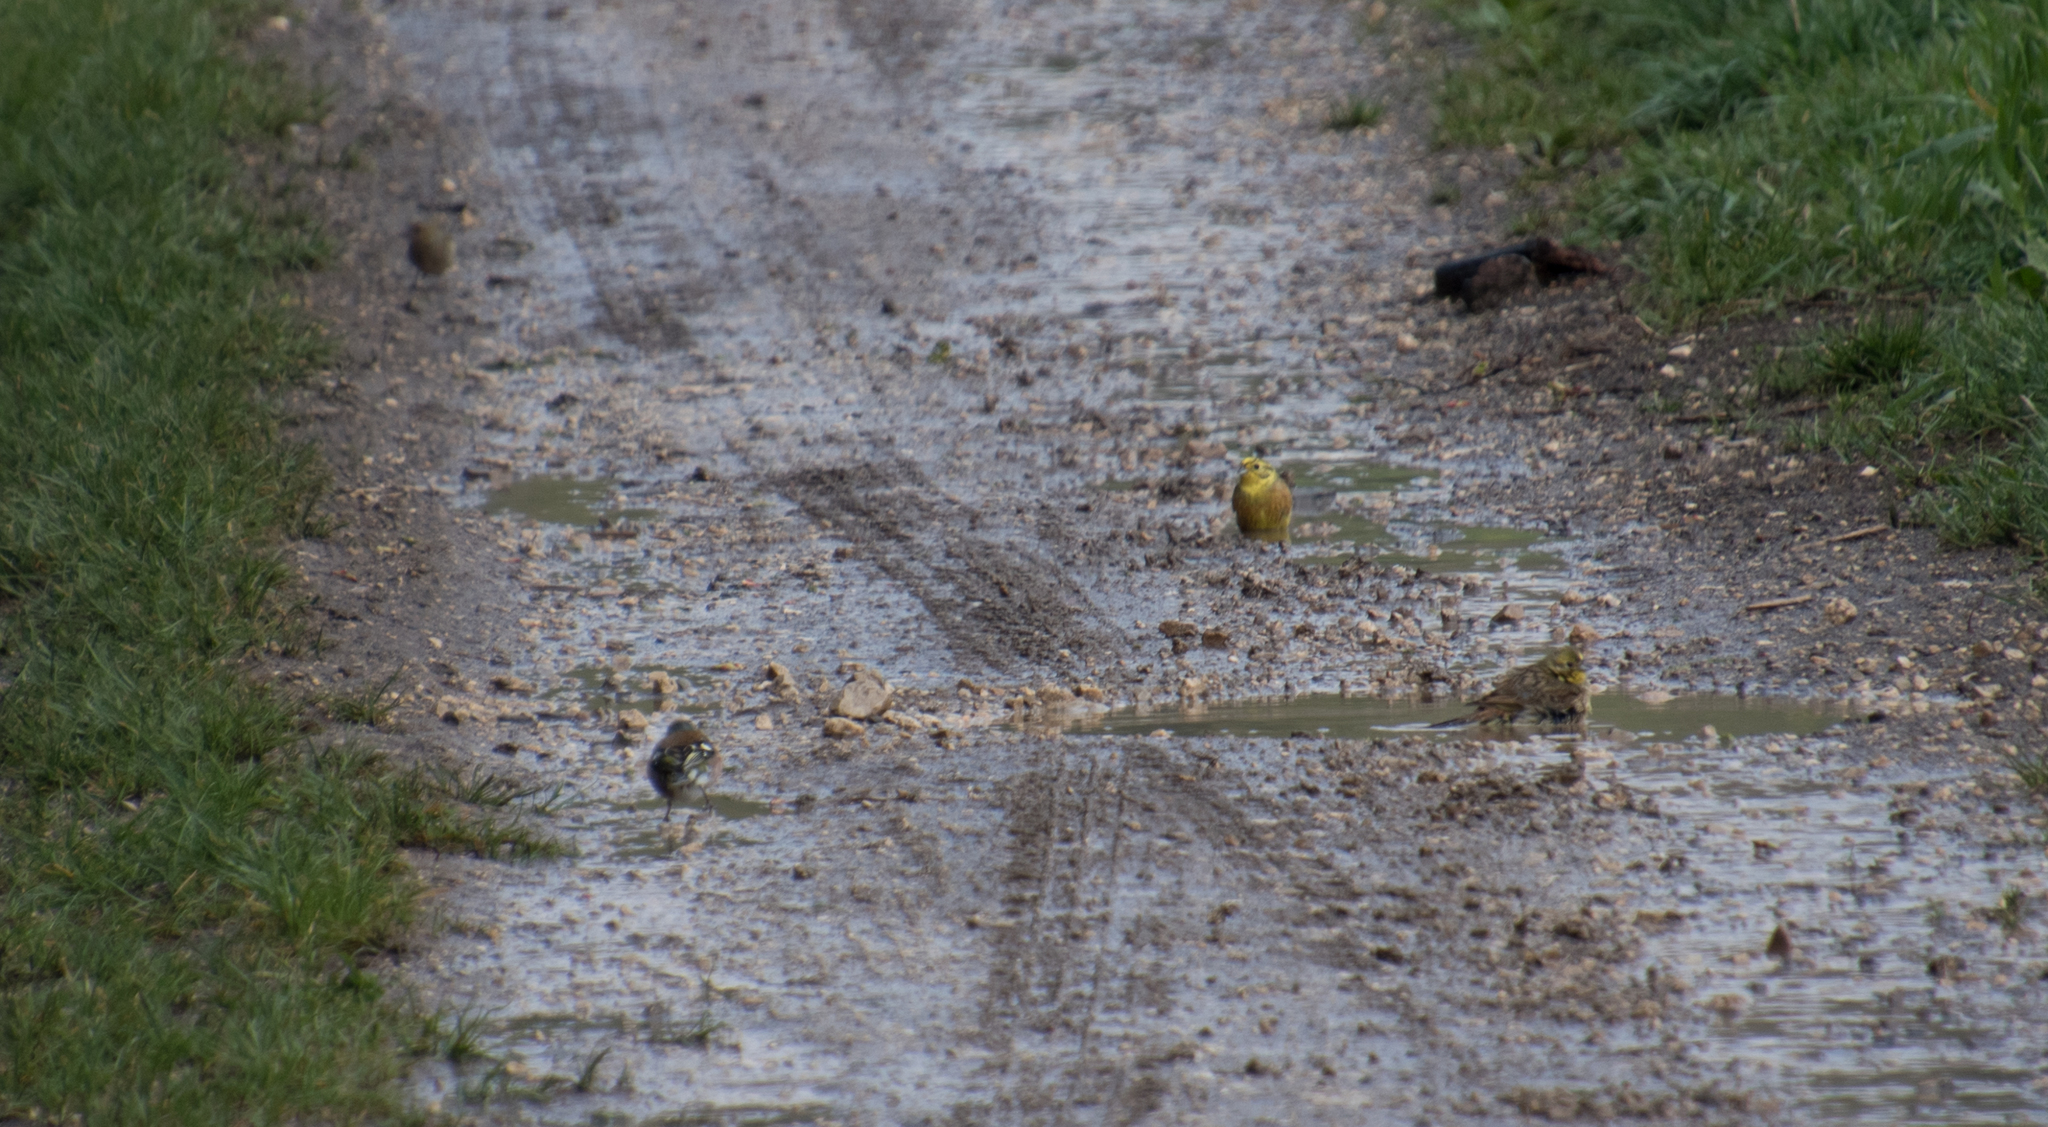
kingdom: Animalia
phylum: Chordata
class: Aves
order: Passeriformes
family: Fringillidae
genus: Fringilla
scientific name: Fringilla coelebs
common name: Common chaffinch
